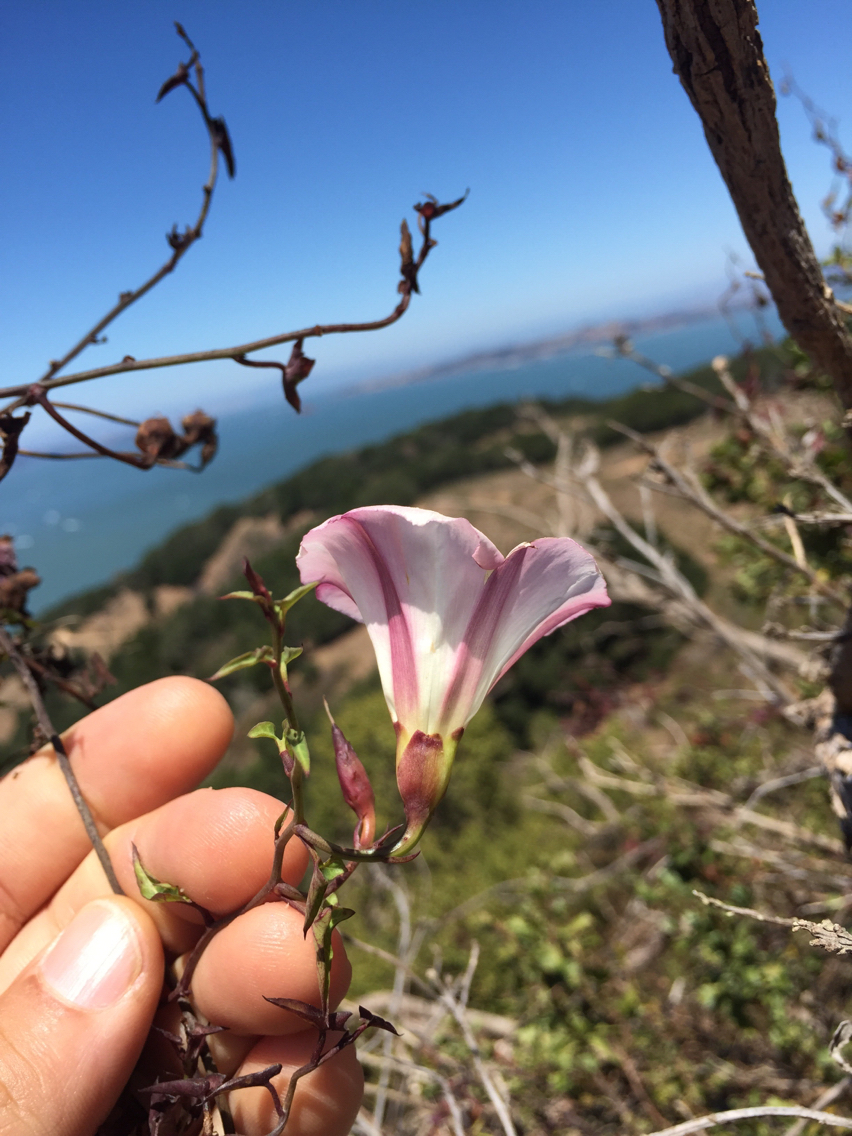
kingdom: Plantae
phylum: Tracheophyta
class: Magnoliopsida
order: Solanales
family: Convolvulaceae
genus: Calystegia
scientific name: Calystegia purpurata
